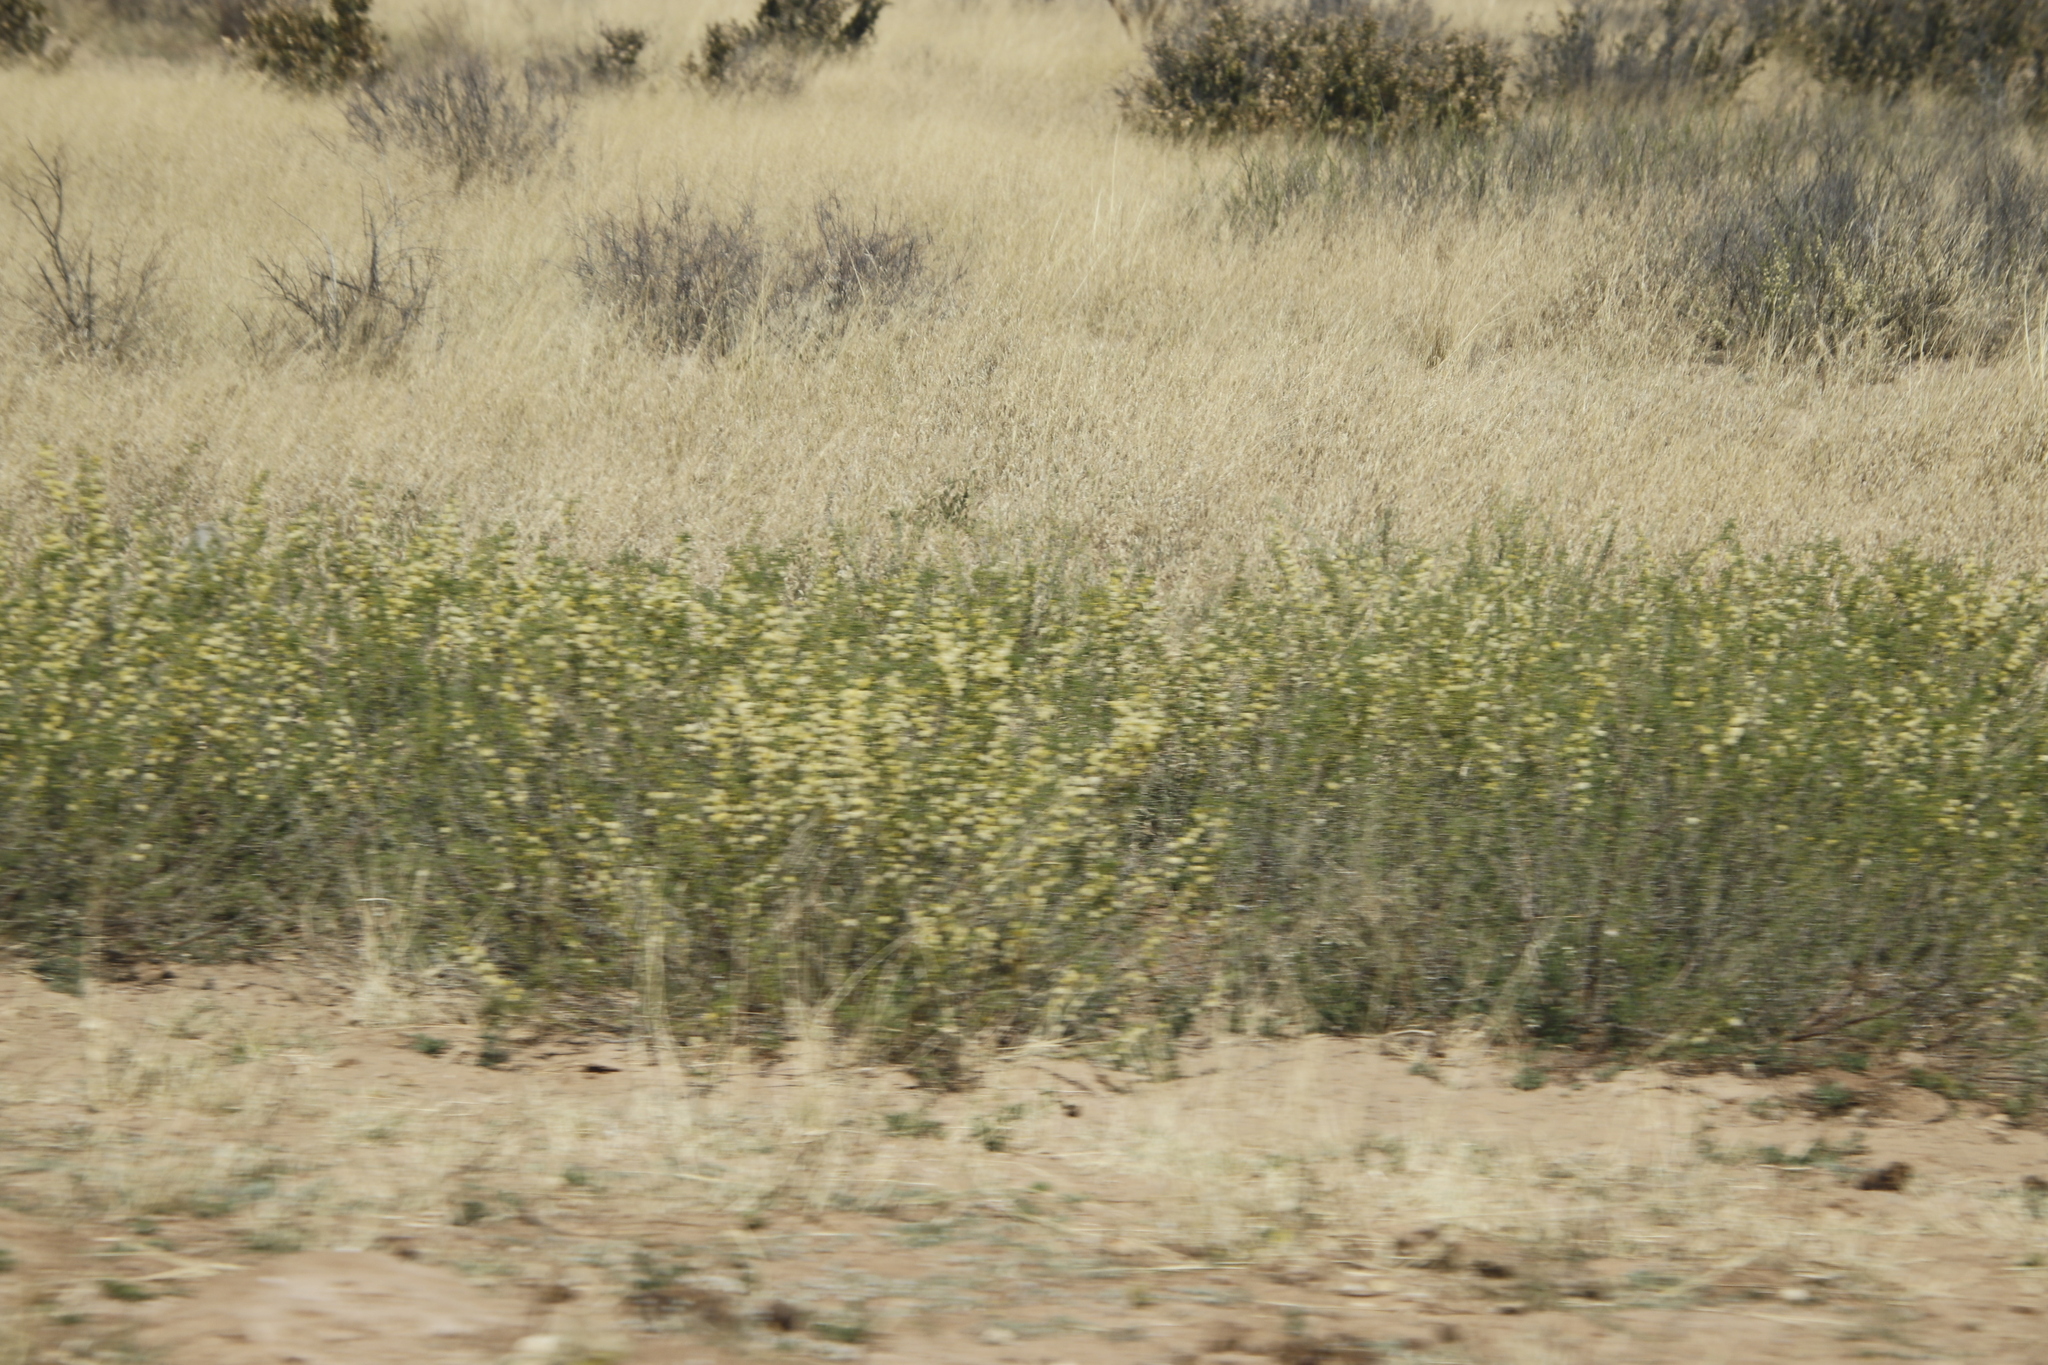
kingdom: Plantae
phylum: Tracheophyta
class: Magnoliopsida
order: Fabales
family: Fabaceae
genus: Vachellia
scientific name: Vachellia hebeclada
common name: Candle thorn
